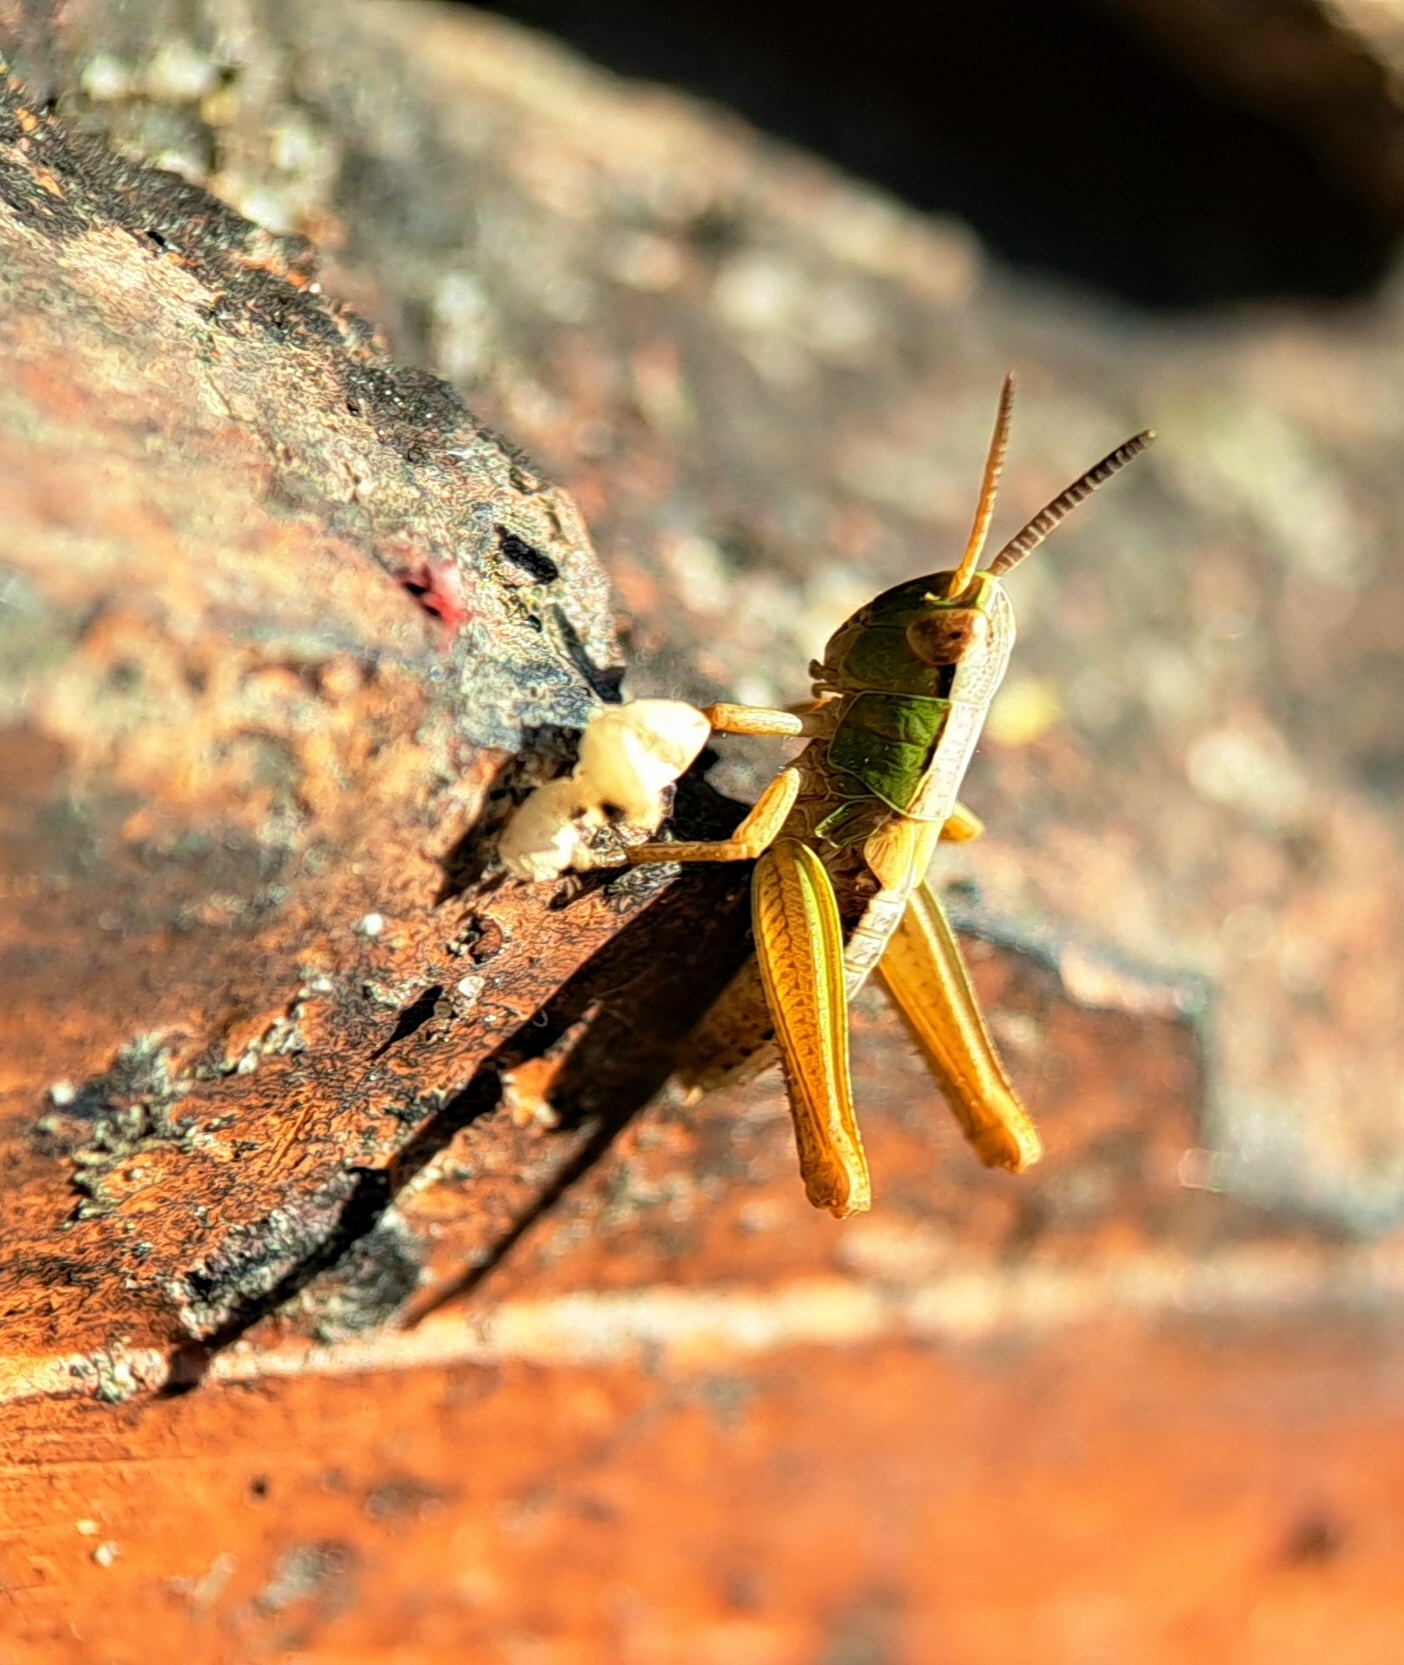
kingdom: Animalia
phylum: Arthropoda
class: Insecta
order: Orthoptera
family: Acrididae
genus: Pseudochorthippus
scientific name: Pseudochorthippus parallelus
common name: Meadow grasshopper
